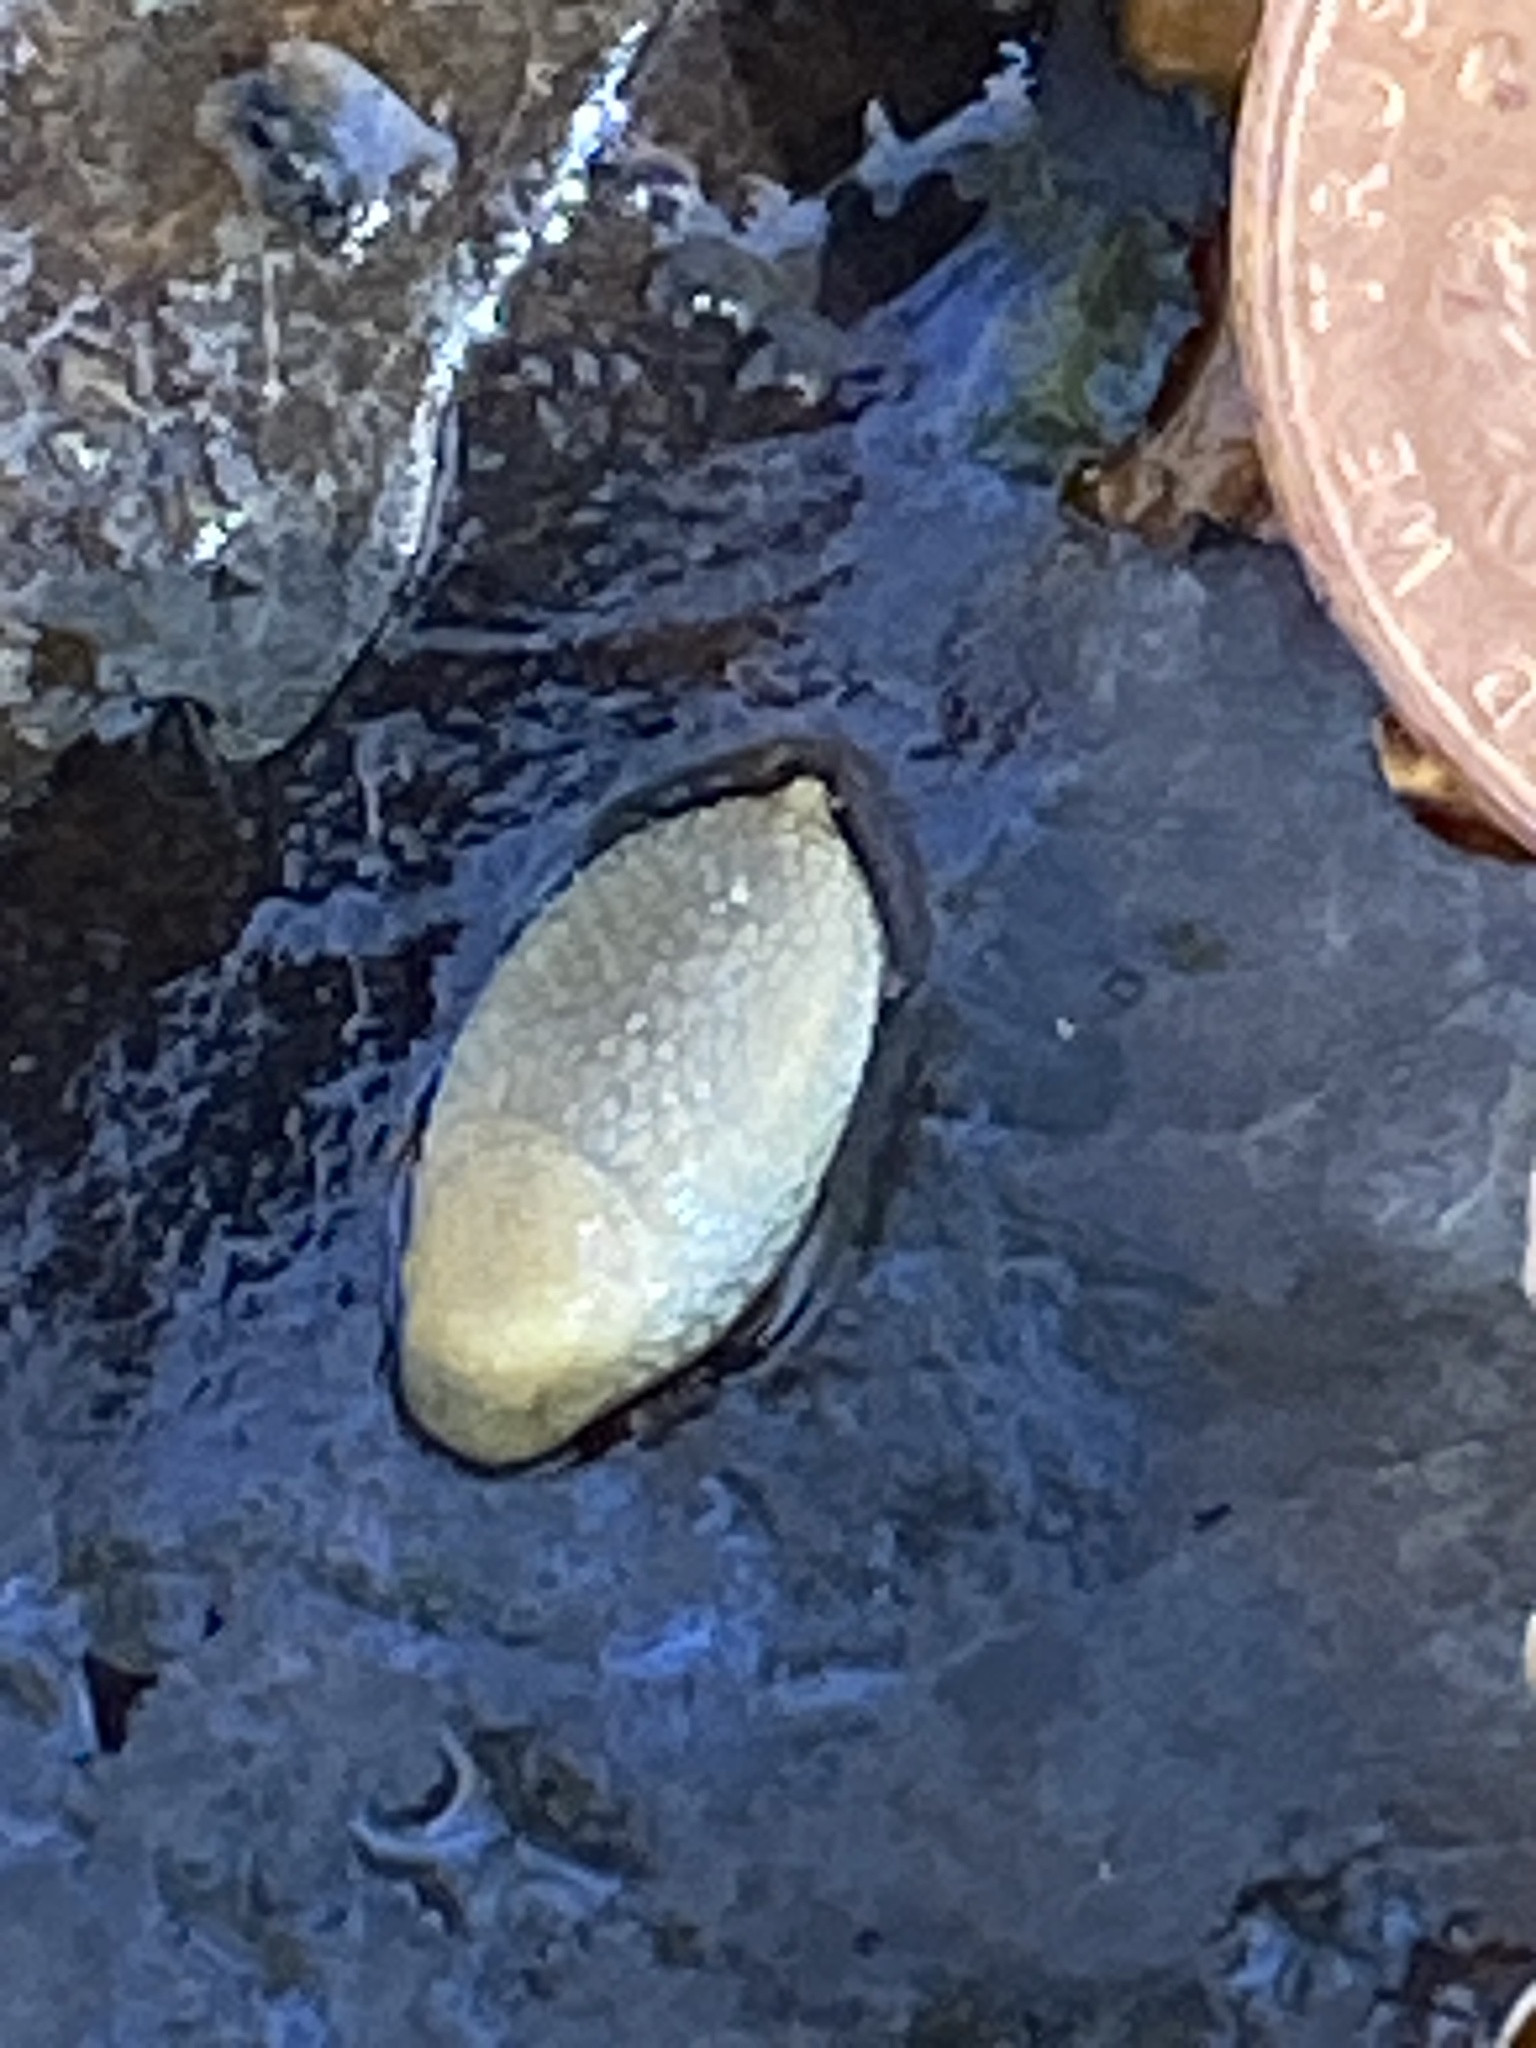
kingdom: Animalia
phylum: Mollusca
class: Gastropoda
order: Stylommatophora
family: Arionidae
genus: Arion
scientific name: Arion intermedius
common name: Hedgehog slug
